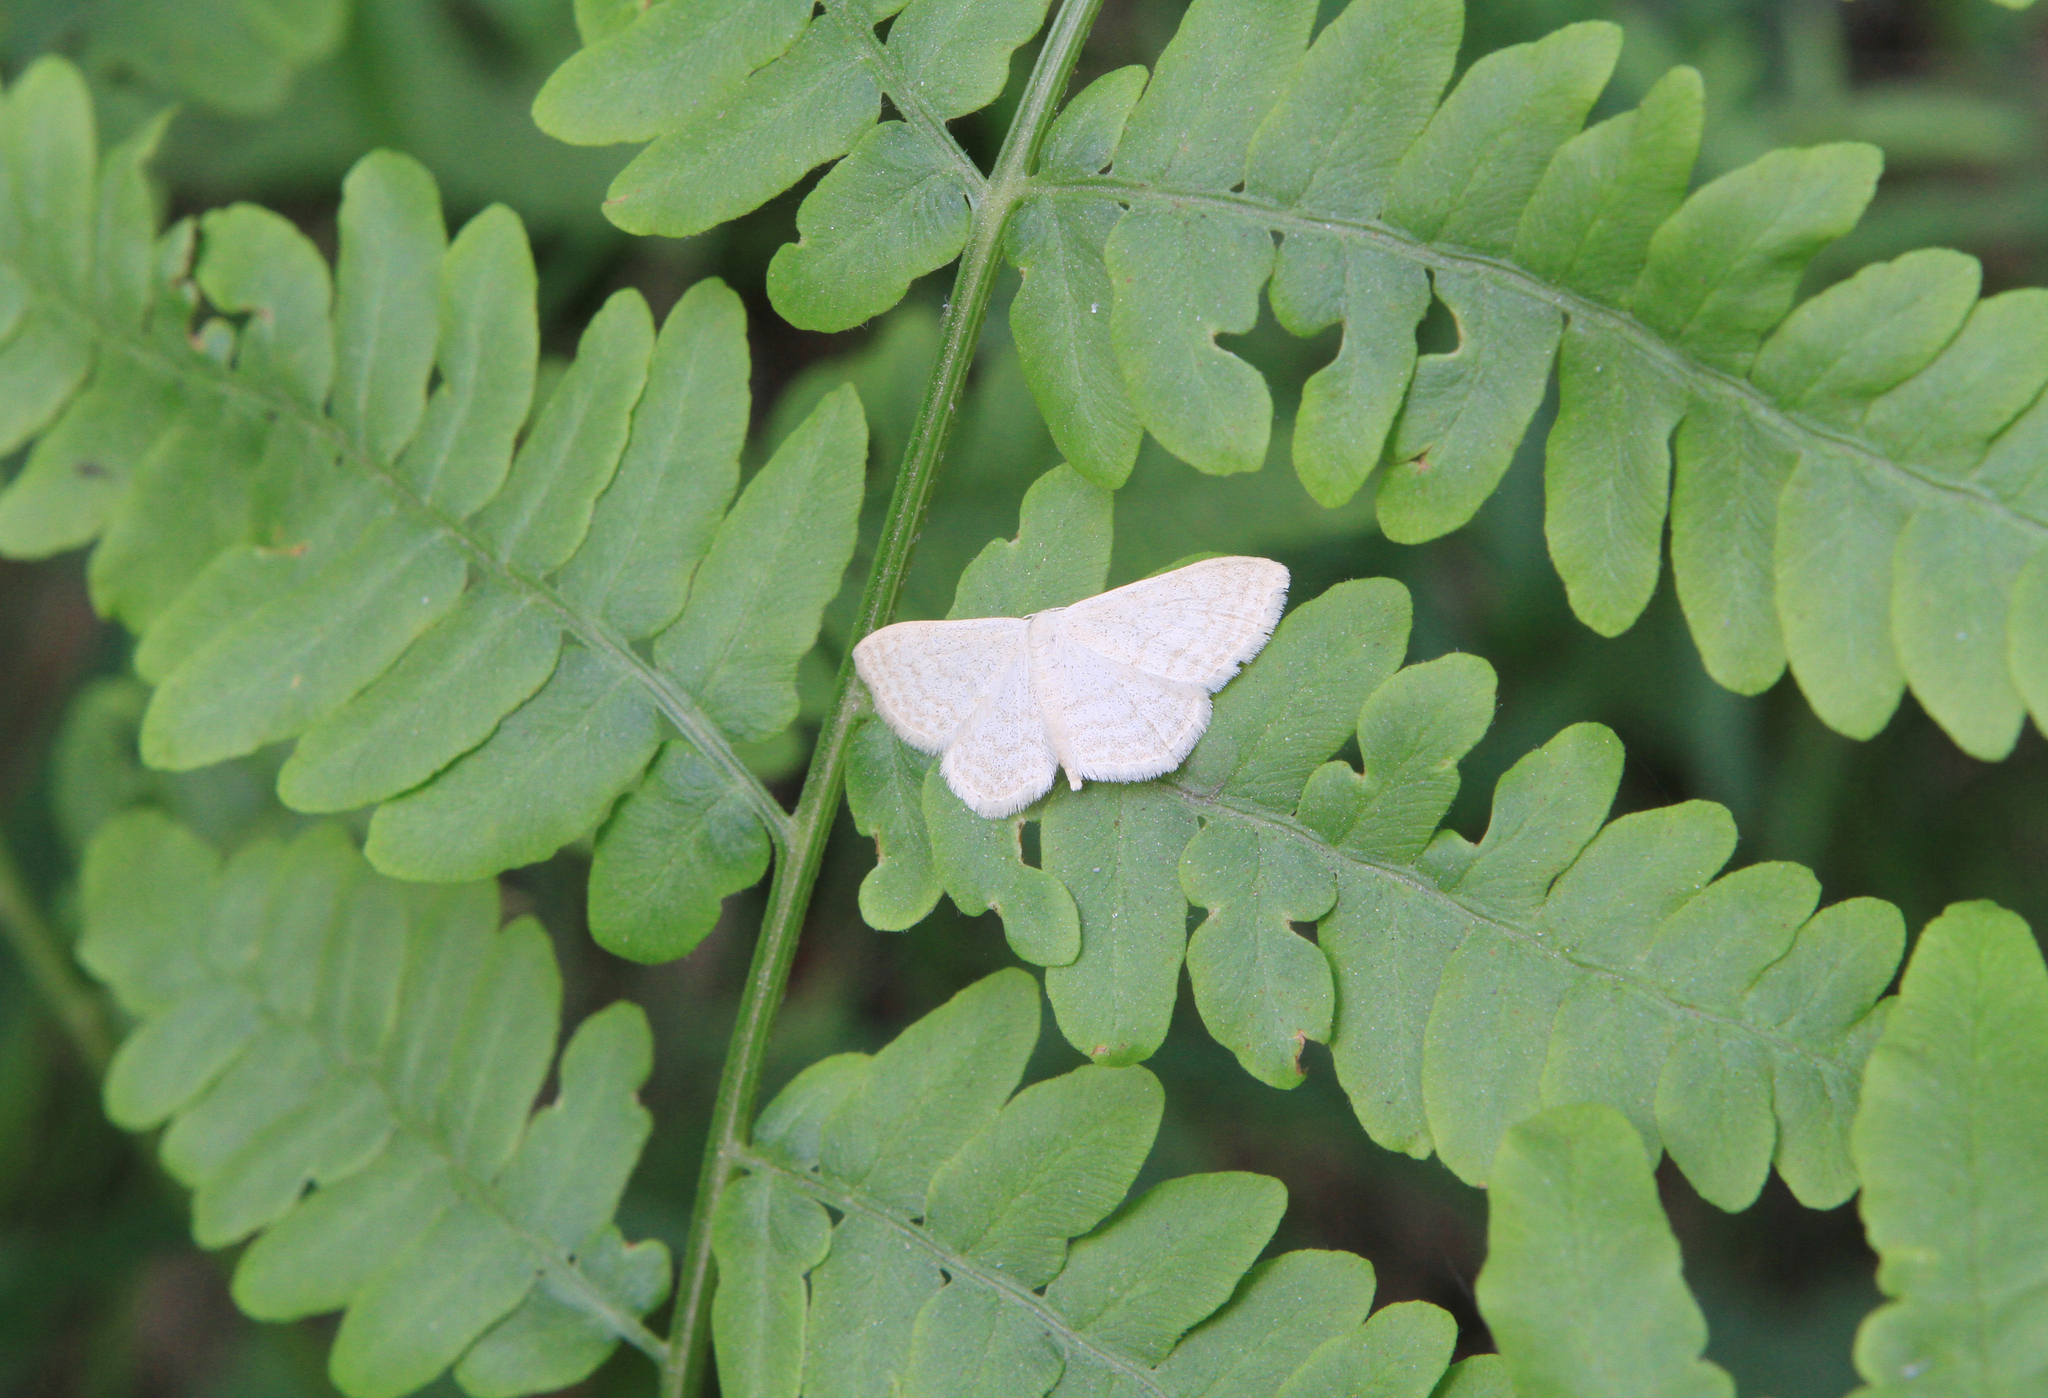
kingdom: Plantae
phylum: Tracheophyta
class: Polypodiopsida
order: Polypodiales
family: Dennstaedtiaceae
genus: Pteridium
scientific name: Pteridium aquilinum
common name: Bracken
